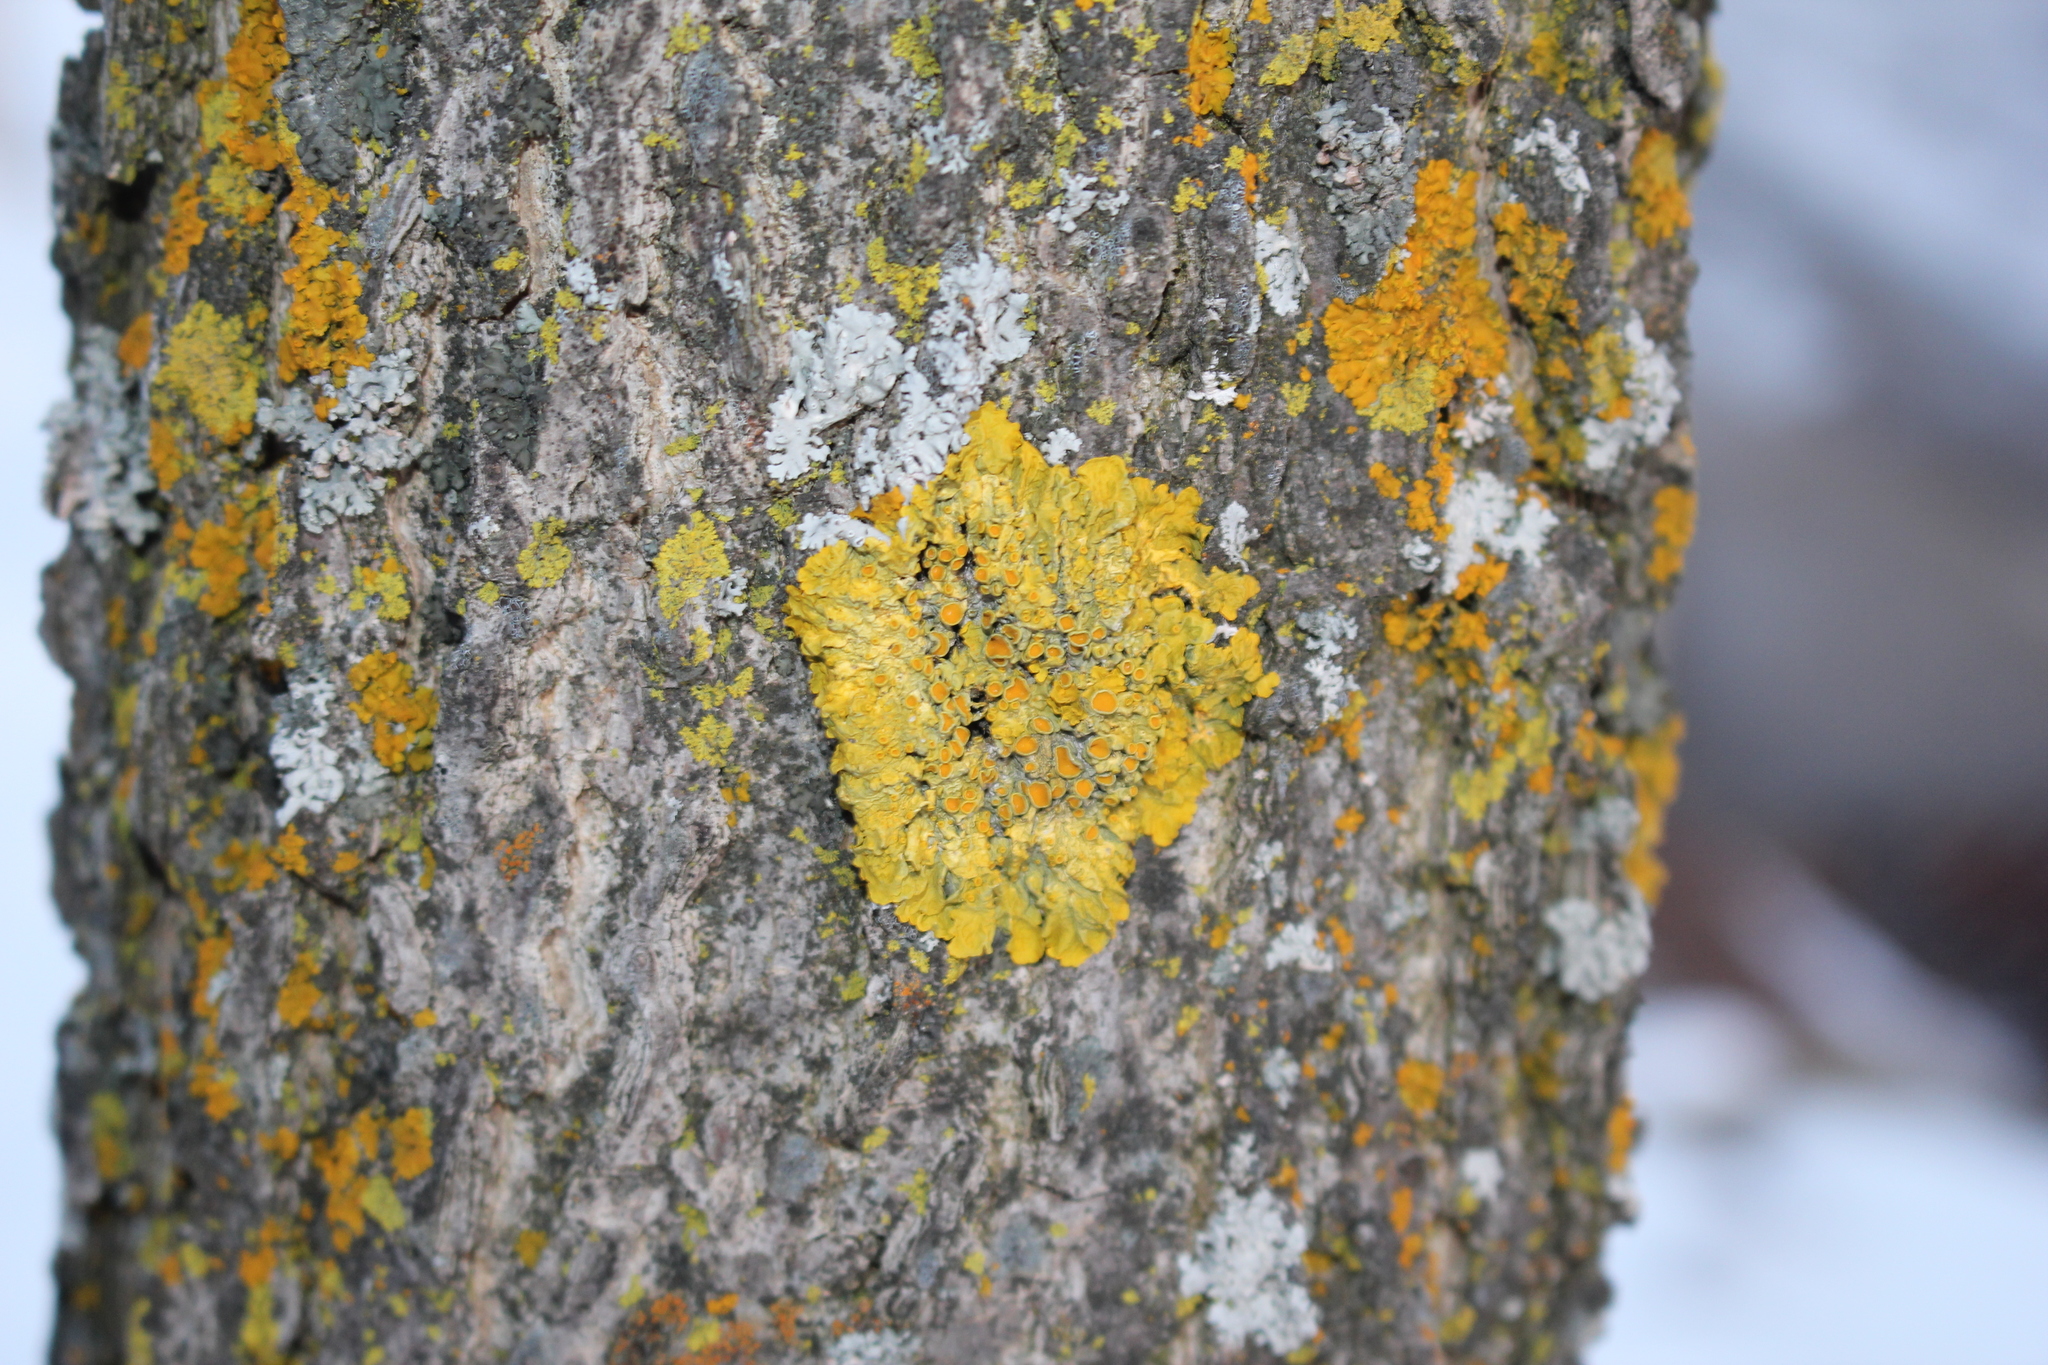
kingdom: Fungi
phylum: Ascomycota
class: Lecanoromycetes
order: Teloschistales
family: Teloschistaceae
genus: Xanthoria
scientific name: Xanthoria parietina
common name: Common orange lichen
